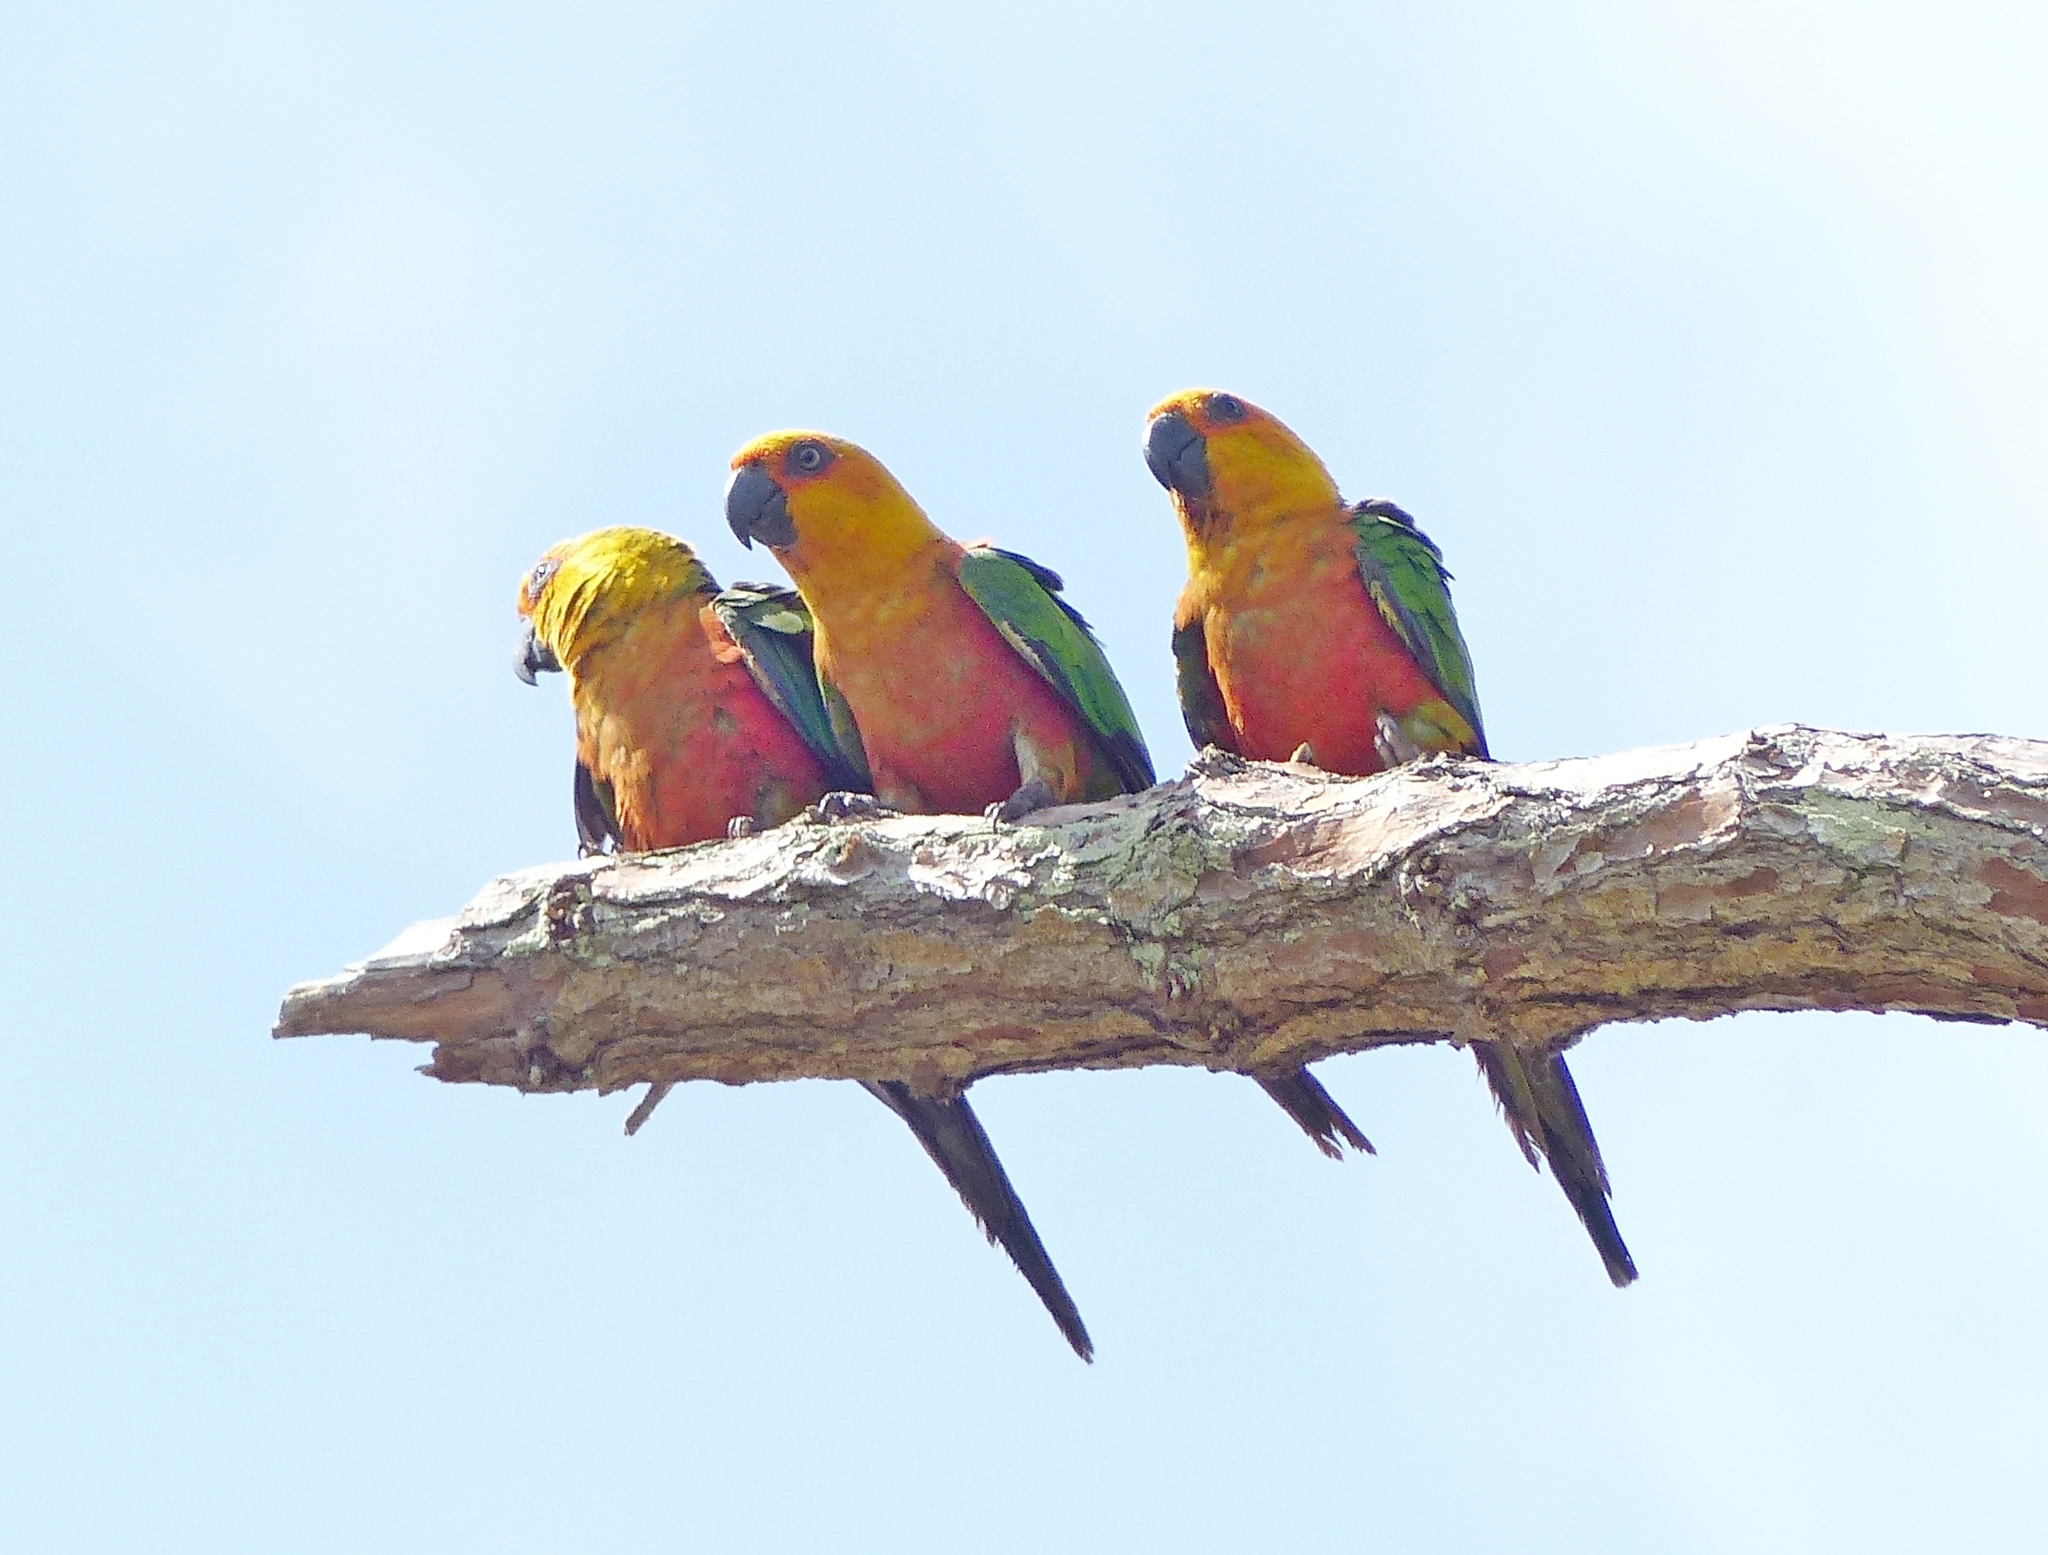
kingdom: Animalia
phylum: Chordata
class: Aves
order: Psittaciformes
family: Psittacidae
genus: Aratinga
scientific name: Aratinga jandaya
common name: Jandaya parakeet
